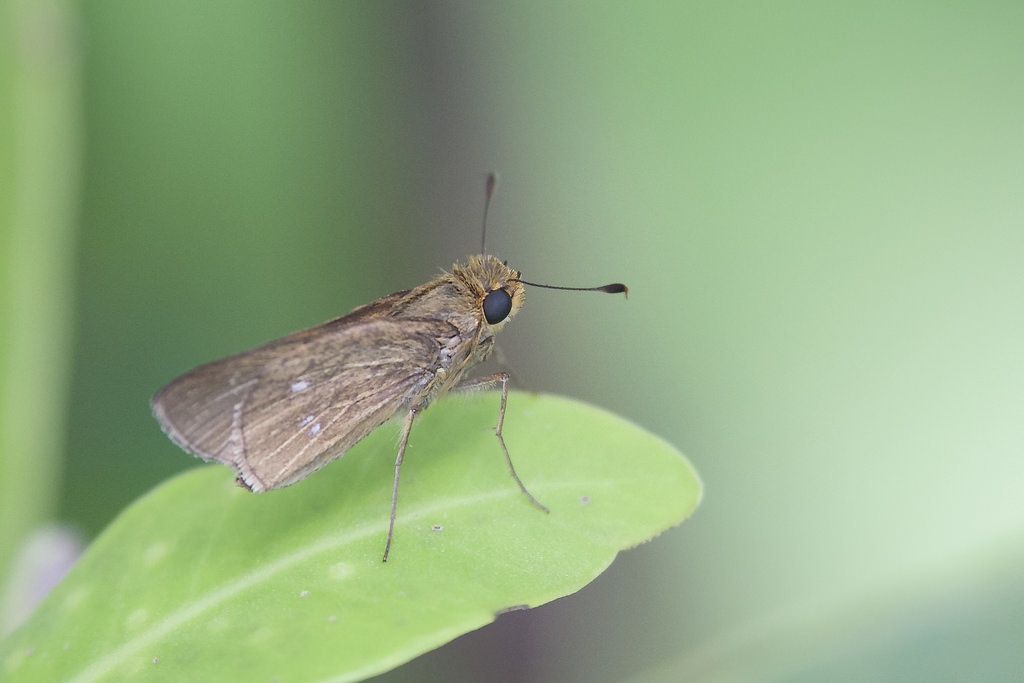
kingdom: Animalia
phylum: Arthropoda
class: Insecta
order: Lepidoptera
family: Hesperiidae
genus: Panoquina
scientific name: Panoquina panoquinoides
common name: Beach skipper
